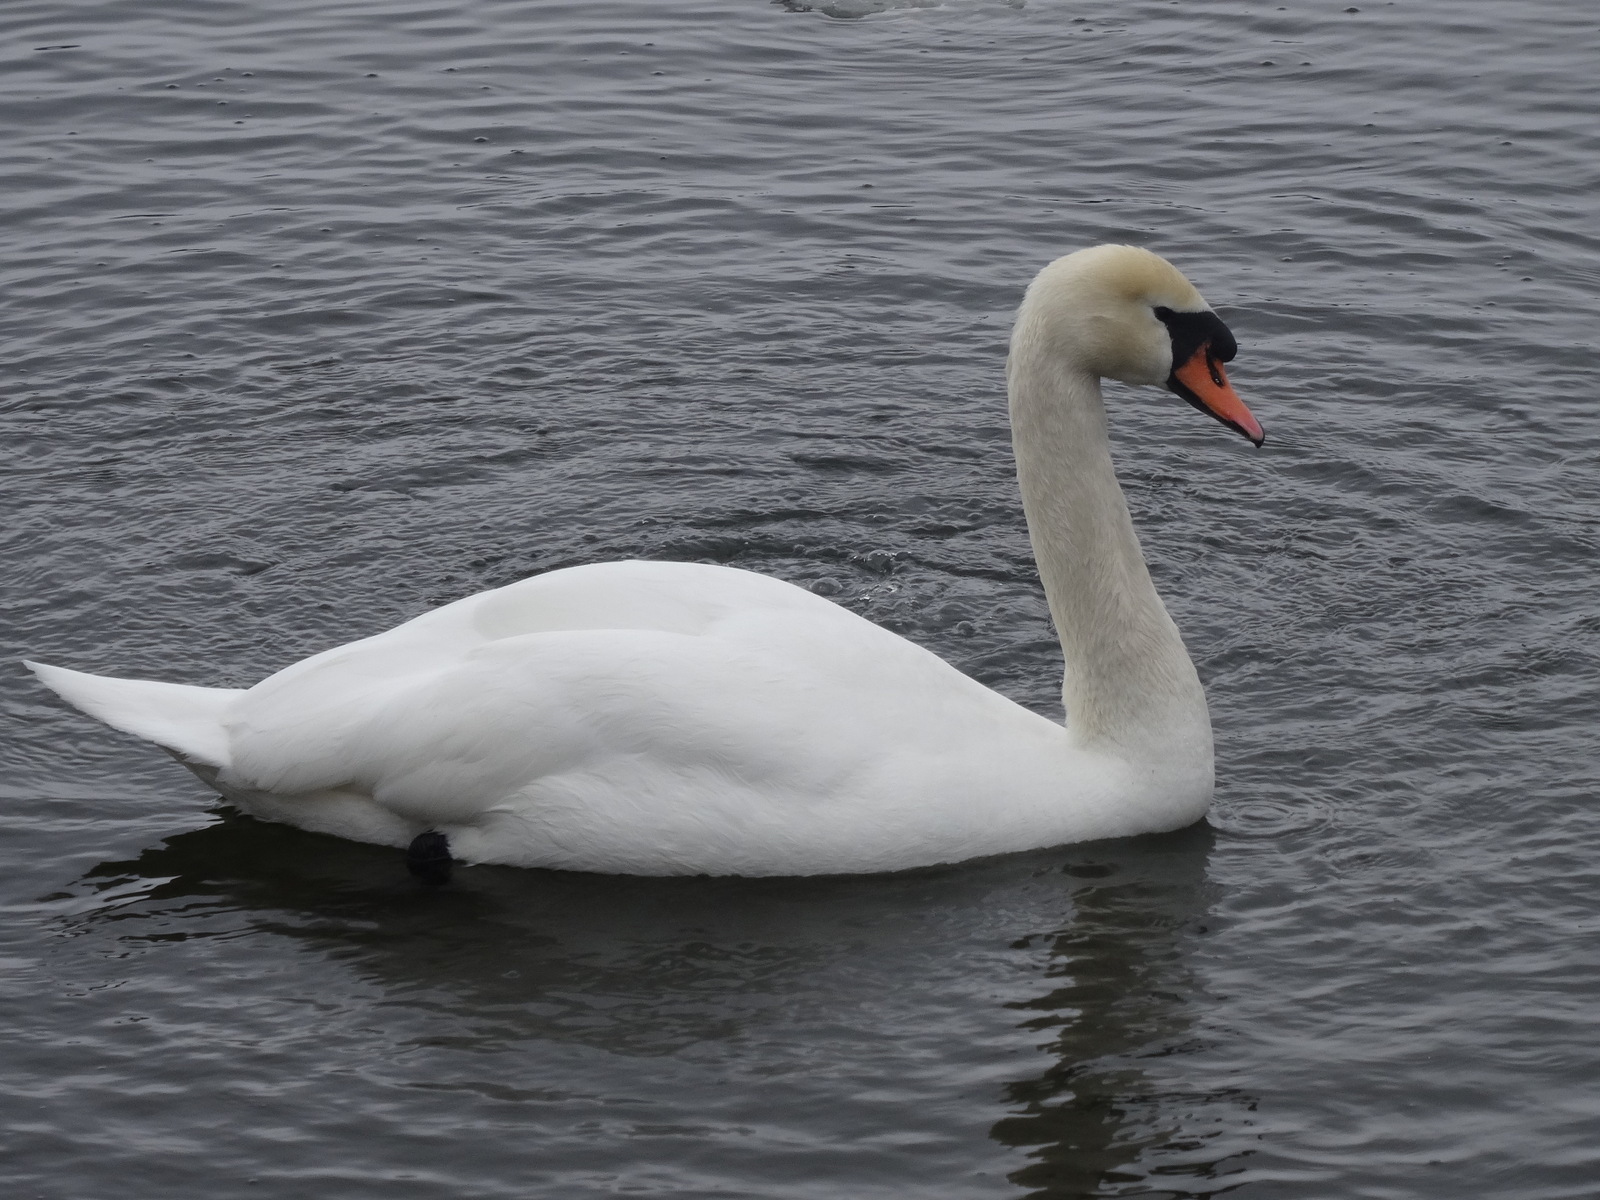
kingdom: Animalia
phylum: Chordata
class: Aves
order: Anseriformes
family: Anatidae
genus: Cygnus
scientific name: Cygnus olor
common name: Mute swan
